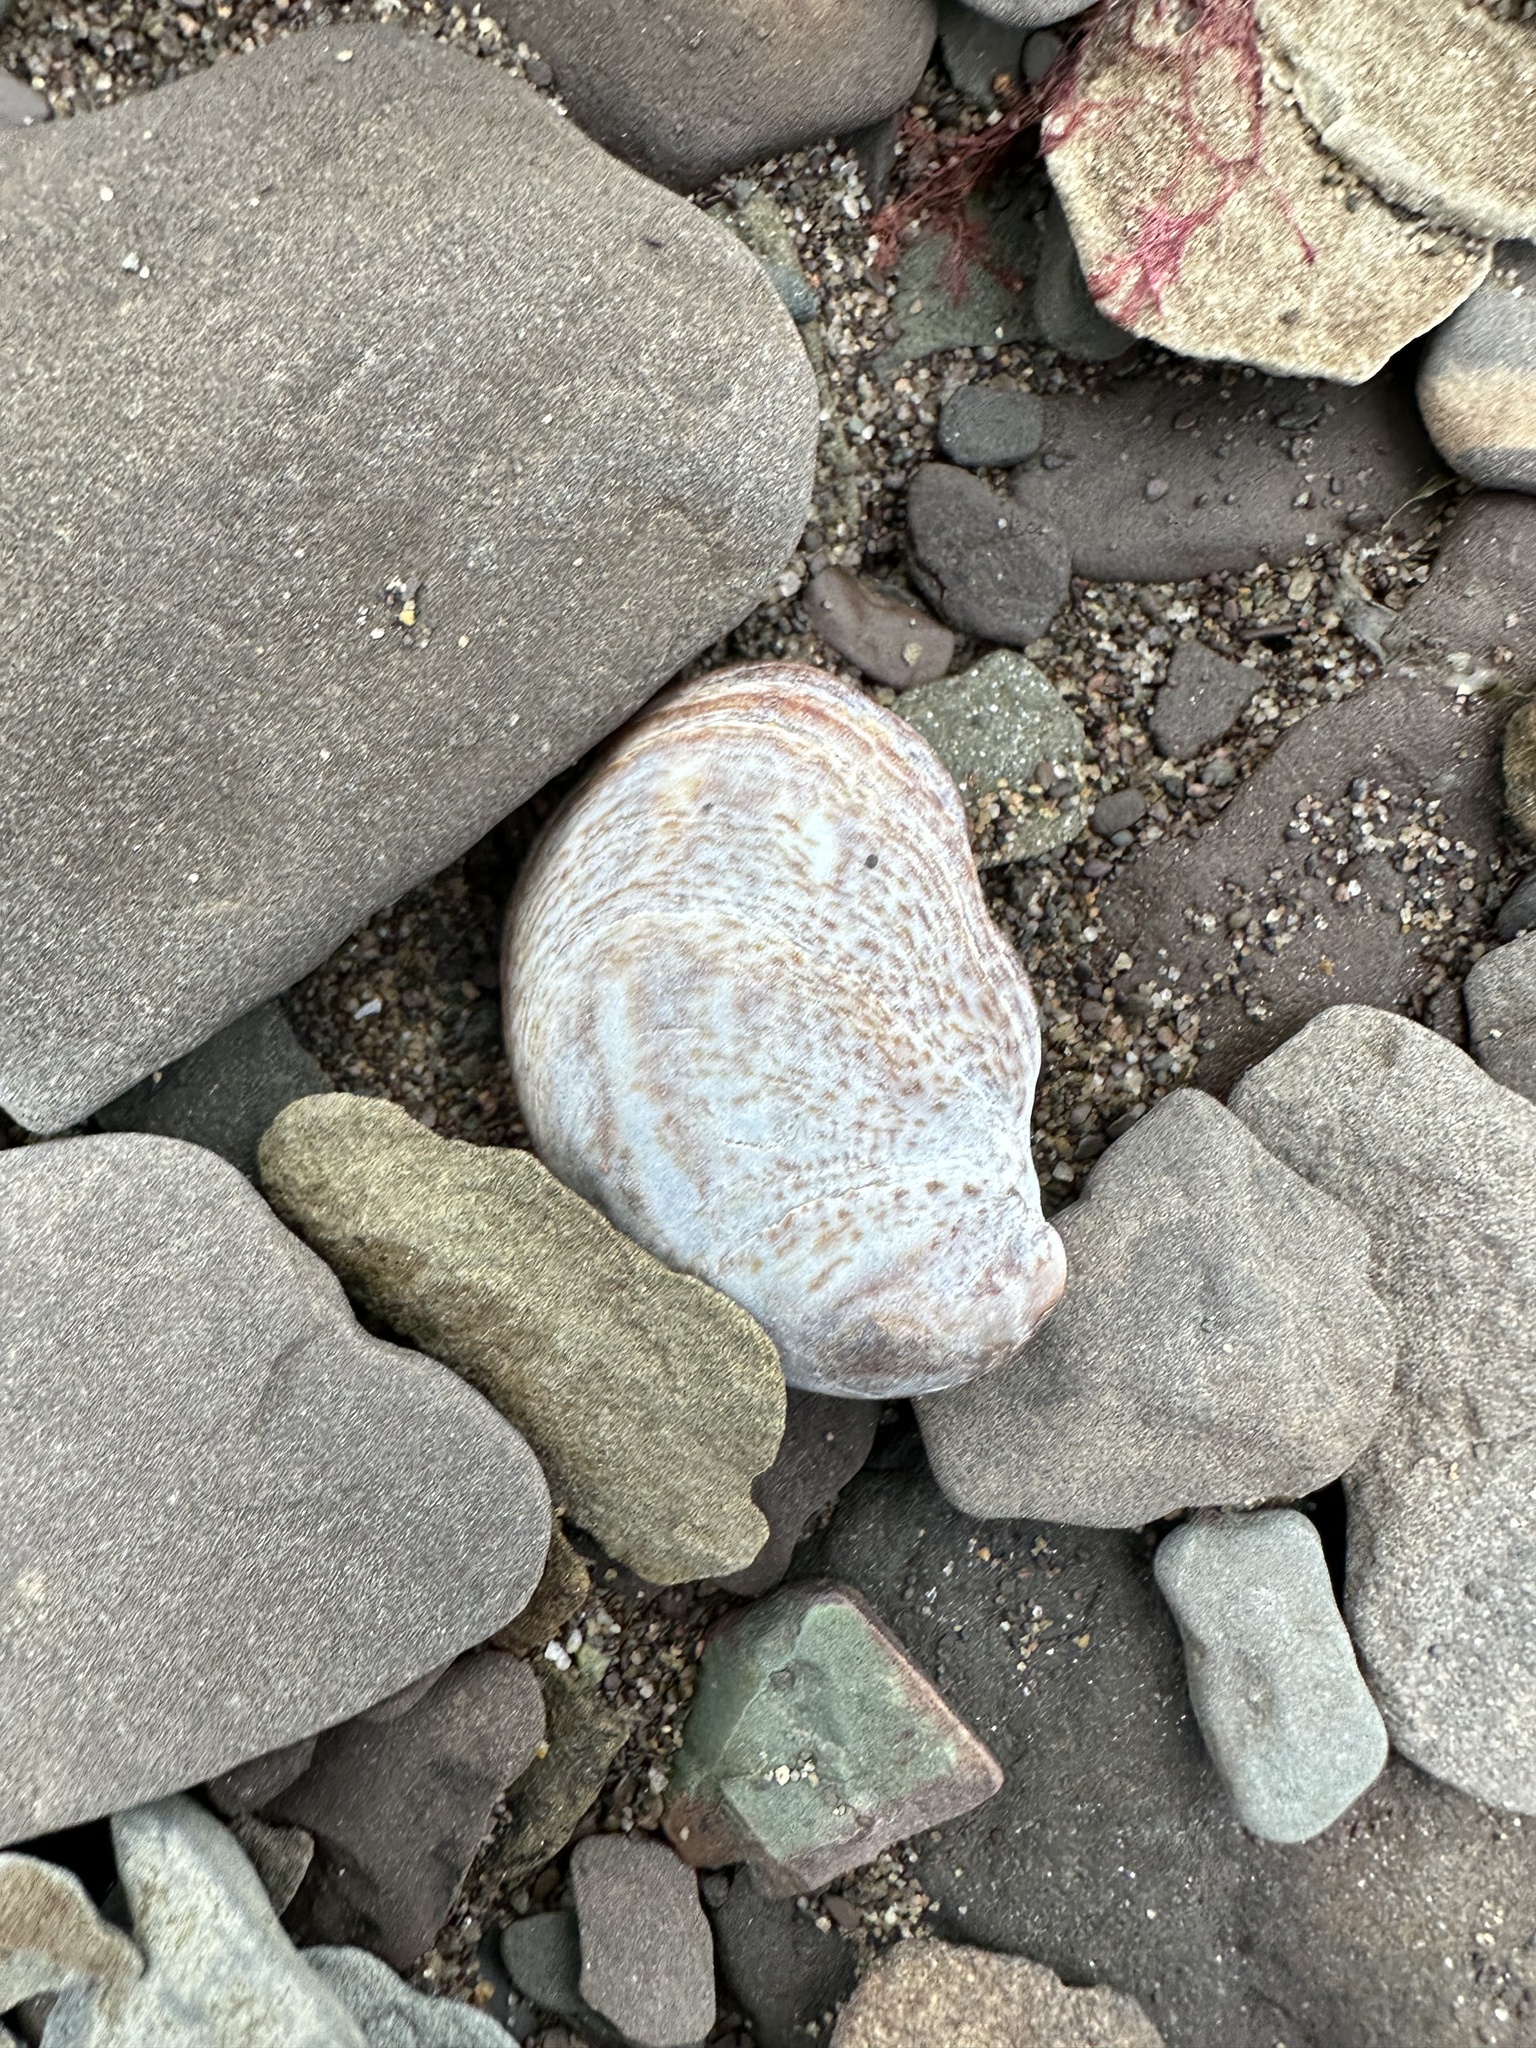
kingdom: Animalia
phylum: Mollusca
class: Gastropoda
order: Littorinimorpha
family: Calyptraeidae
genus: Crepidula
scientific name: Crepidula fornicata
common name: Slipper limpet
